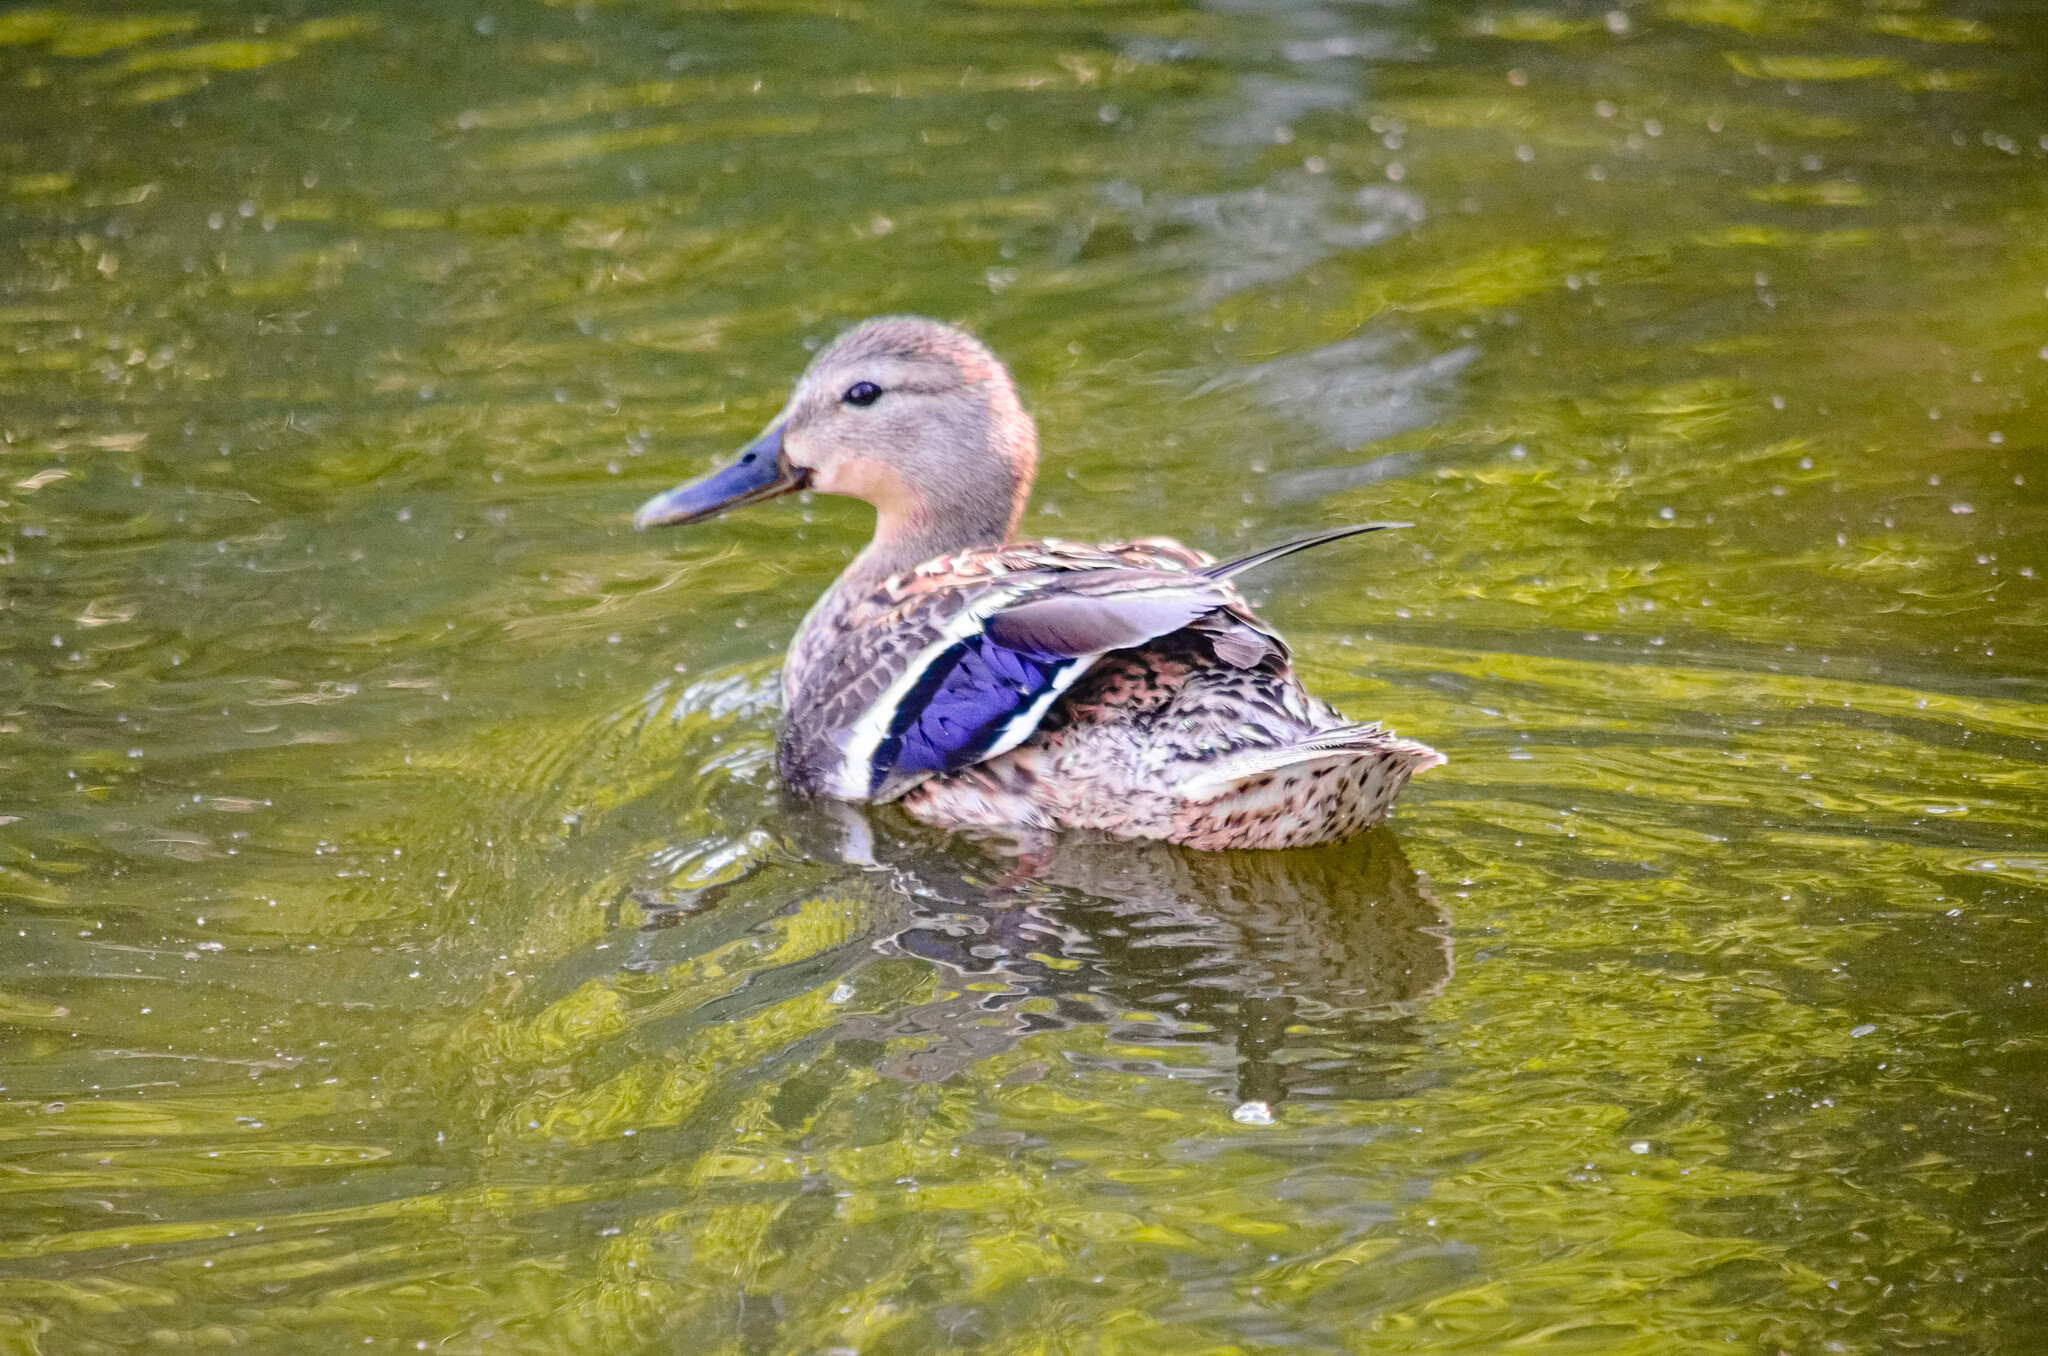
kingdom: Animalia
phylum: Chordata
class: Aves
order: Anseriformes
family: Anatidae
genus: Anas
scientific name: Anas platyrhynchos
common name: Mallard
